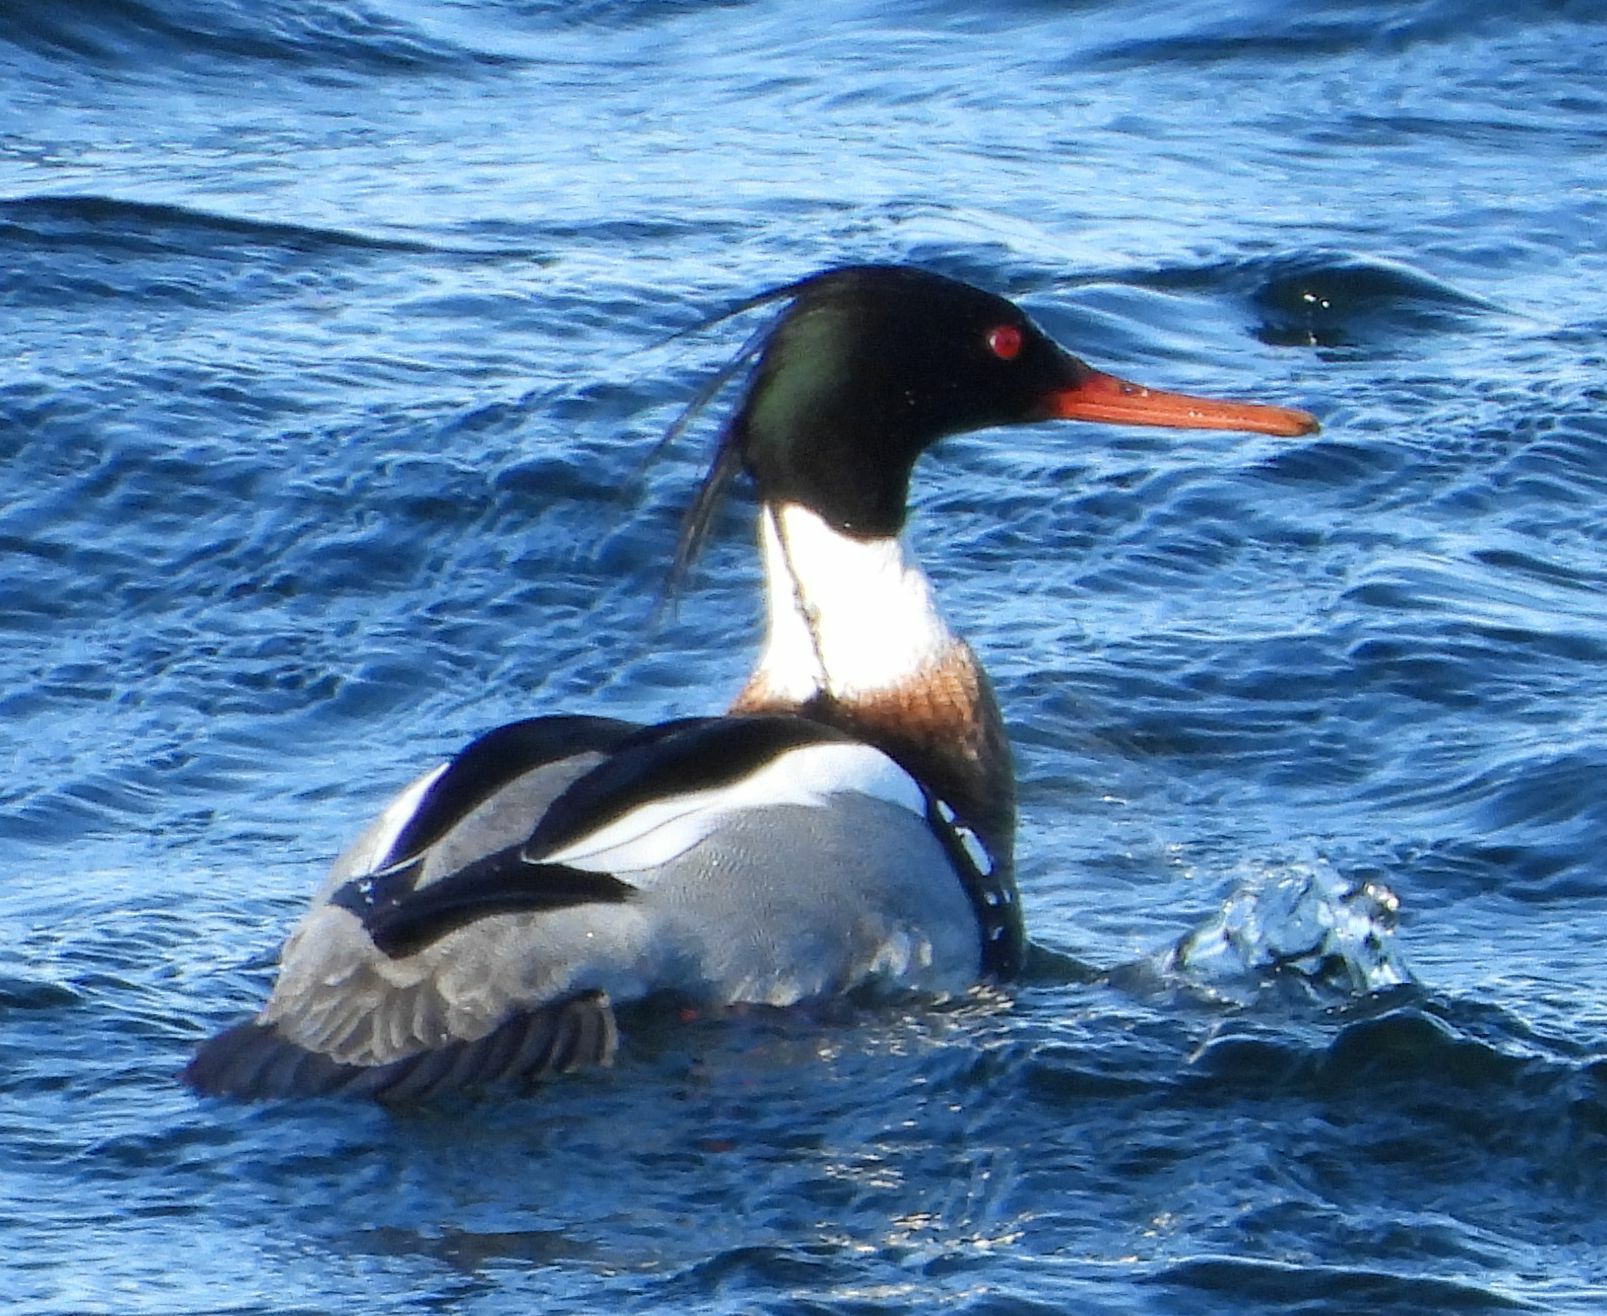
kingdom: Animalia
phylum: Chordata
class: Aves
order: Anseriformes
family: Anatidae
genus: Mergus
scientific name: Mergus serrator
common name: Red-breasted merganser
